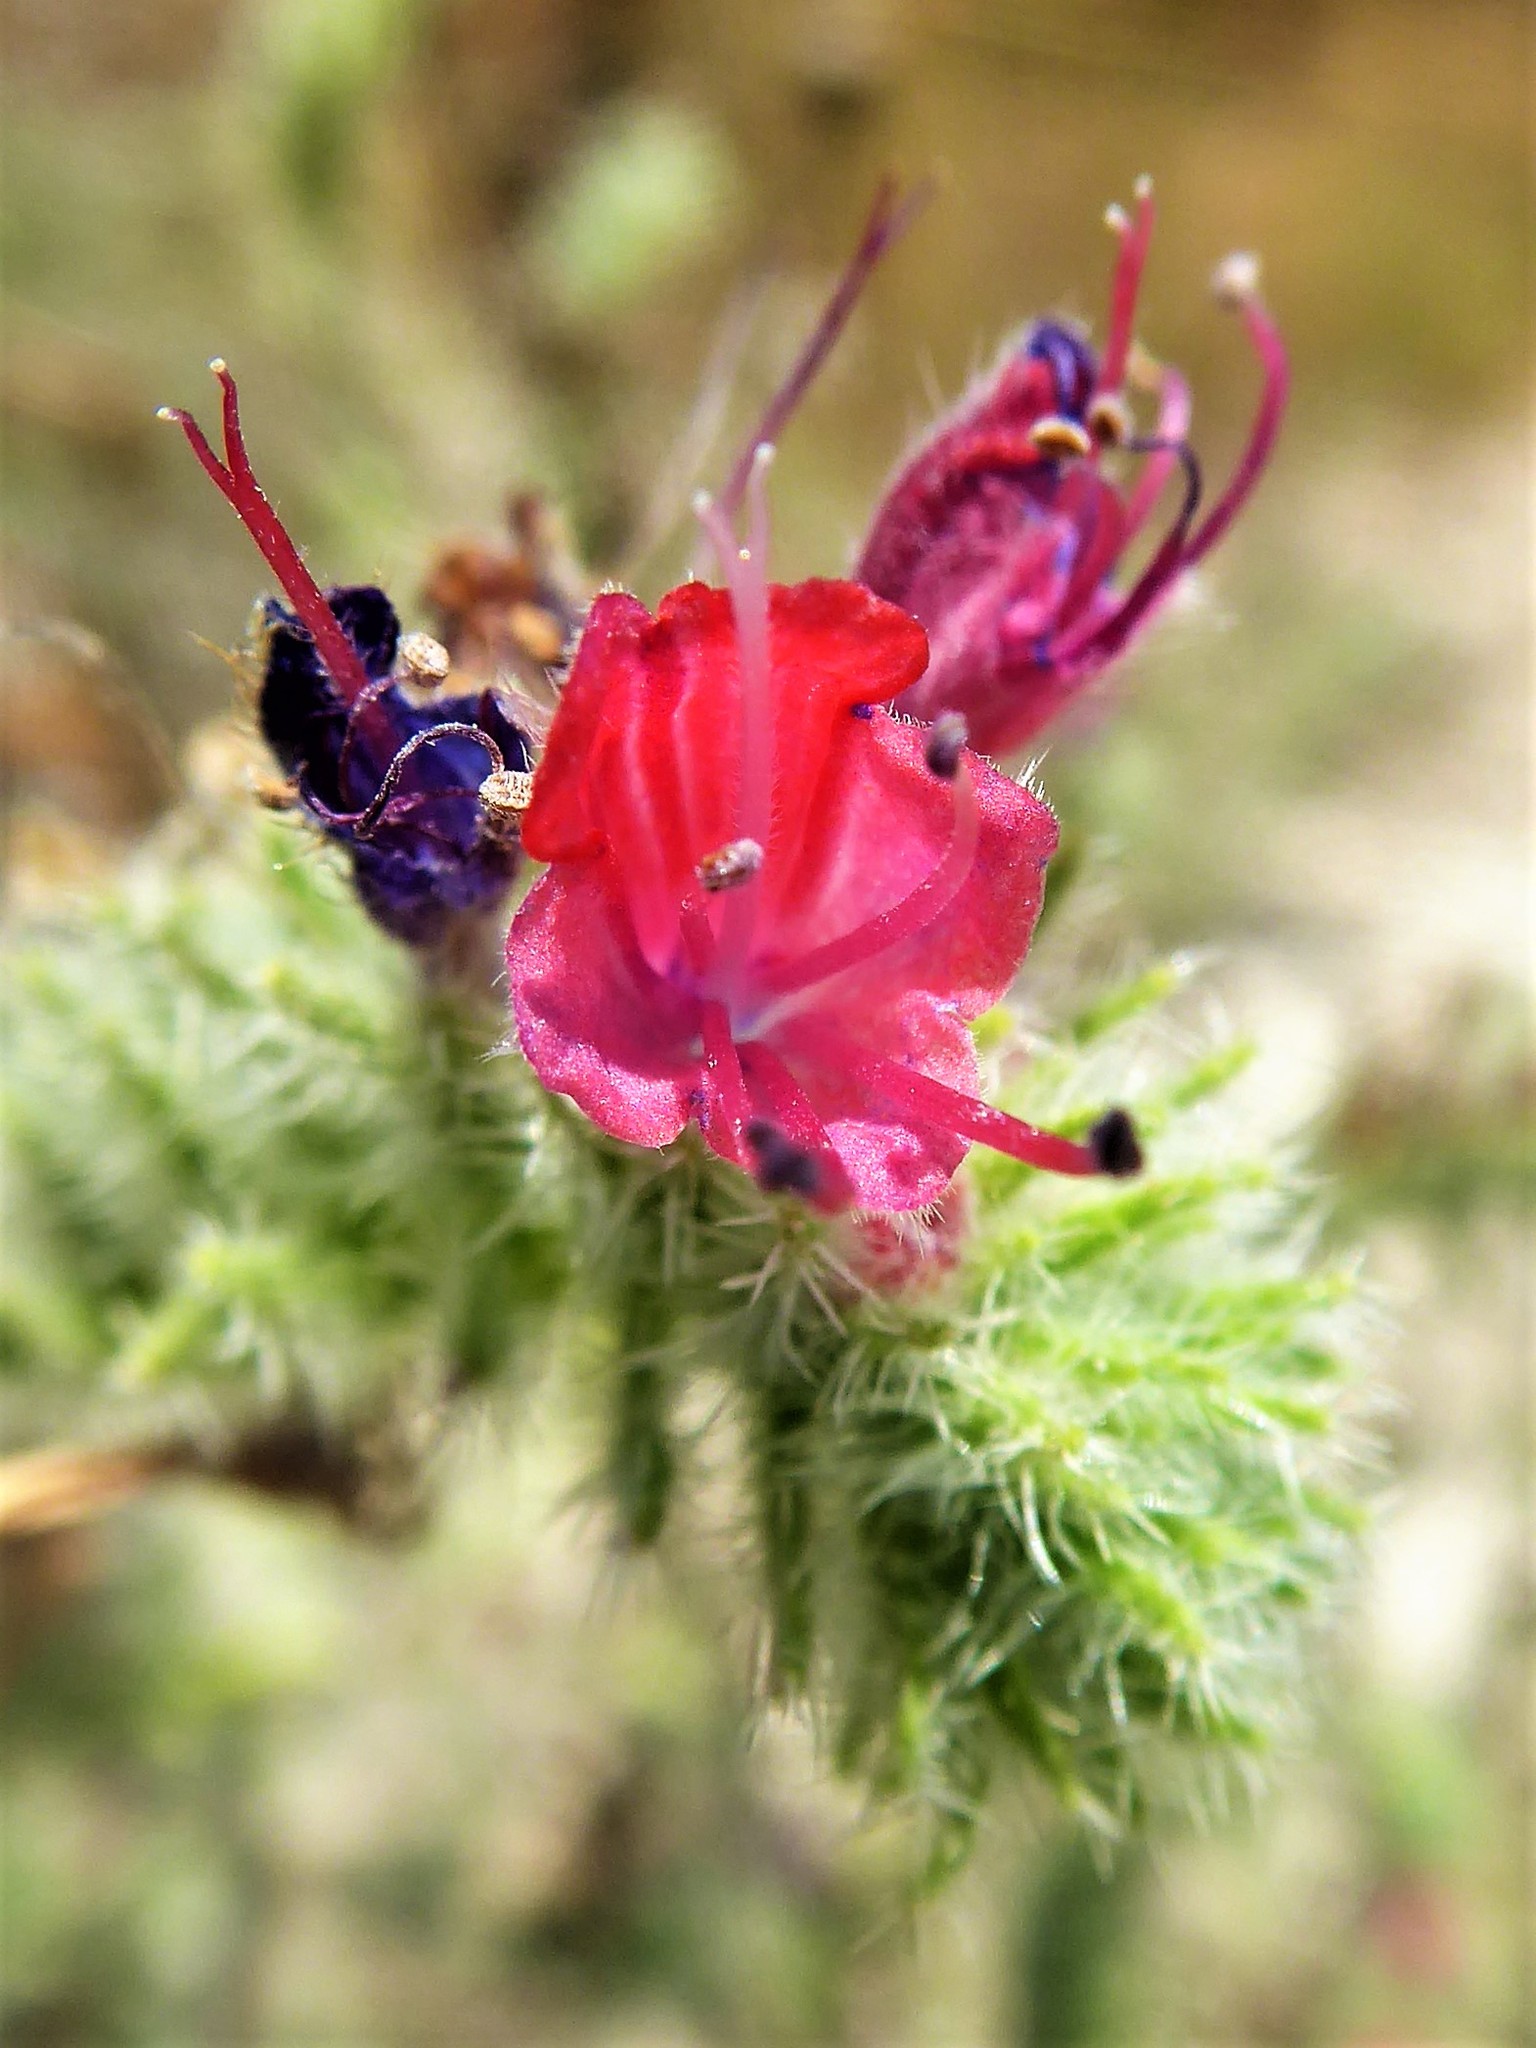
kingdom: Plantae
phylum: Tracheophyta
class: Magnoliopsida
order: Boraginales
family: Boraginaceae
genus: Echium
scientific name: Echium angustifolium
